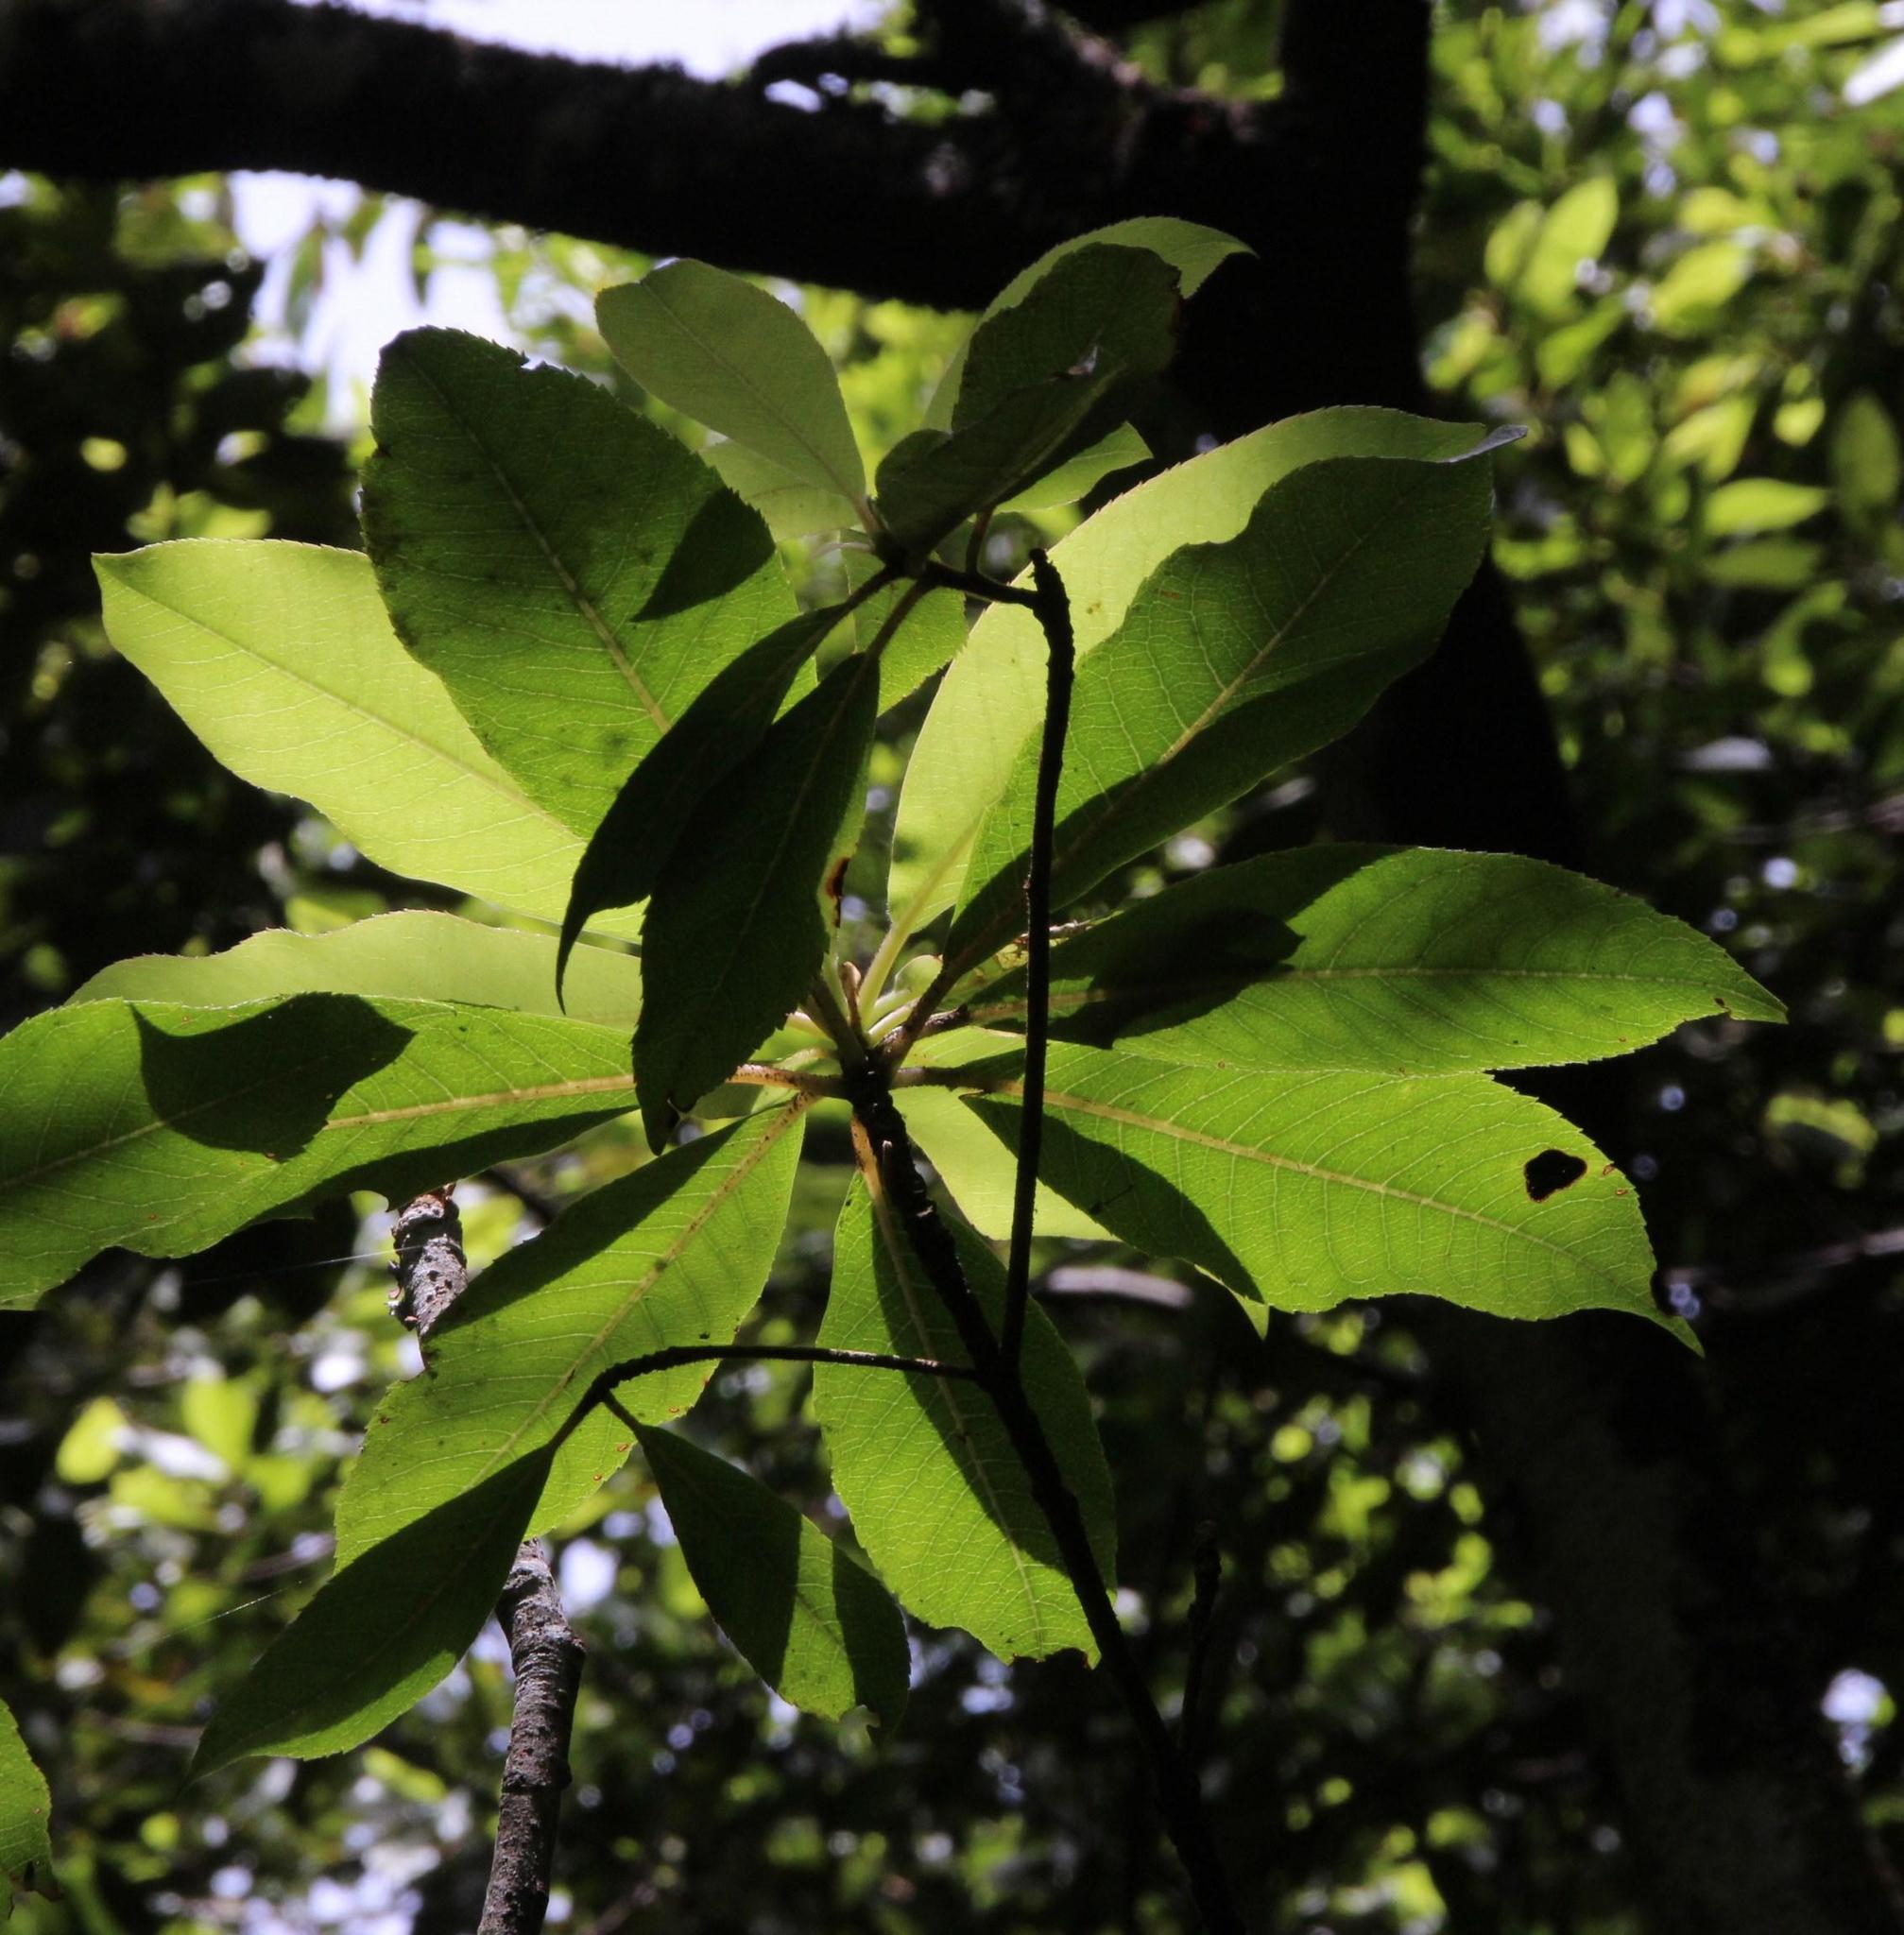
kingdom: Plantae
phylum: Tracheophyta
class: Magnoliopsida
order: Ericales
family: Clethraceae
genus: Clethra
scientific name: Clethra arborea
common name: Lily-of-the-valley-tree
